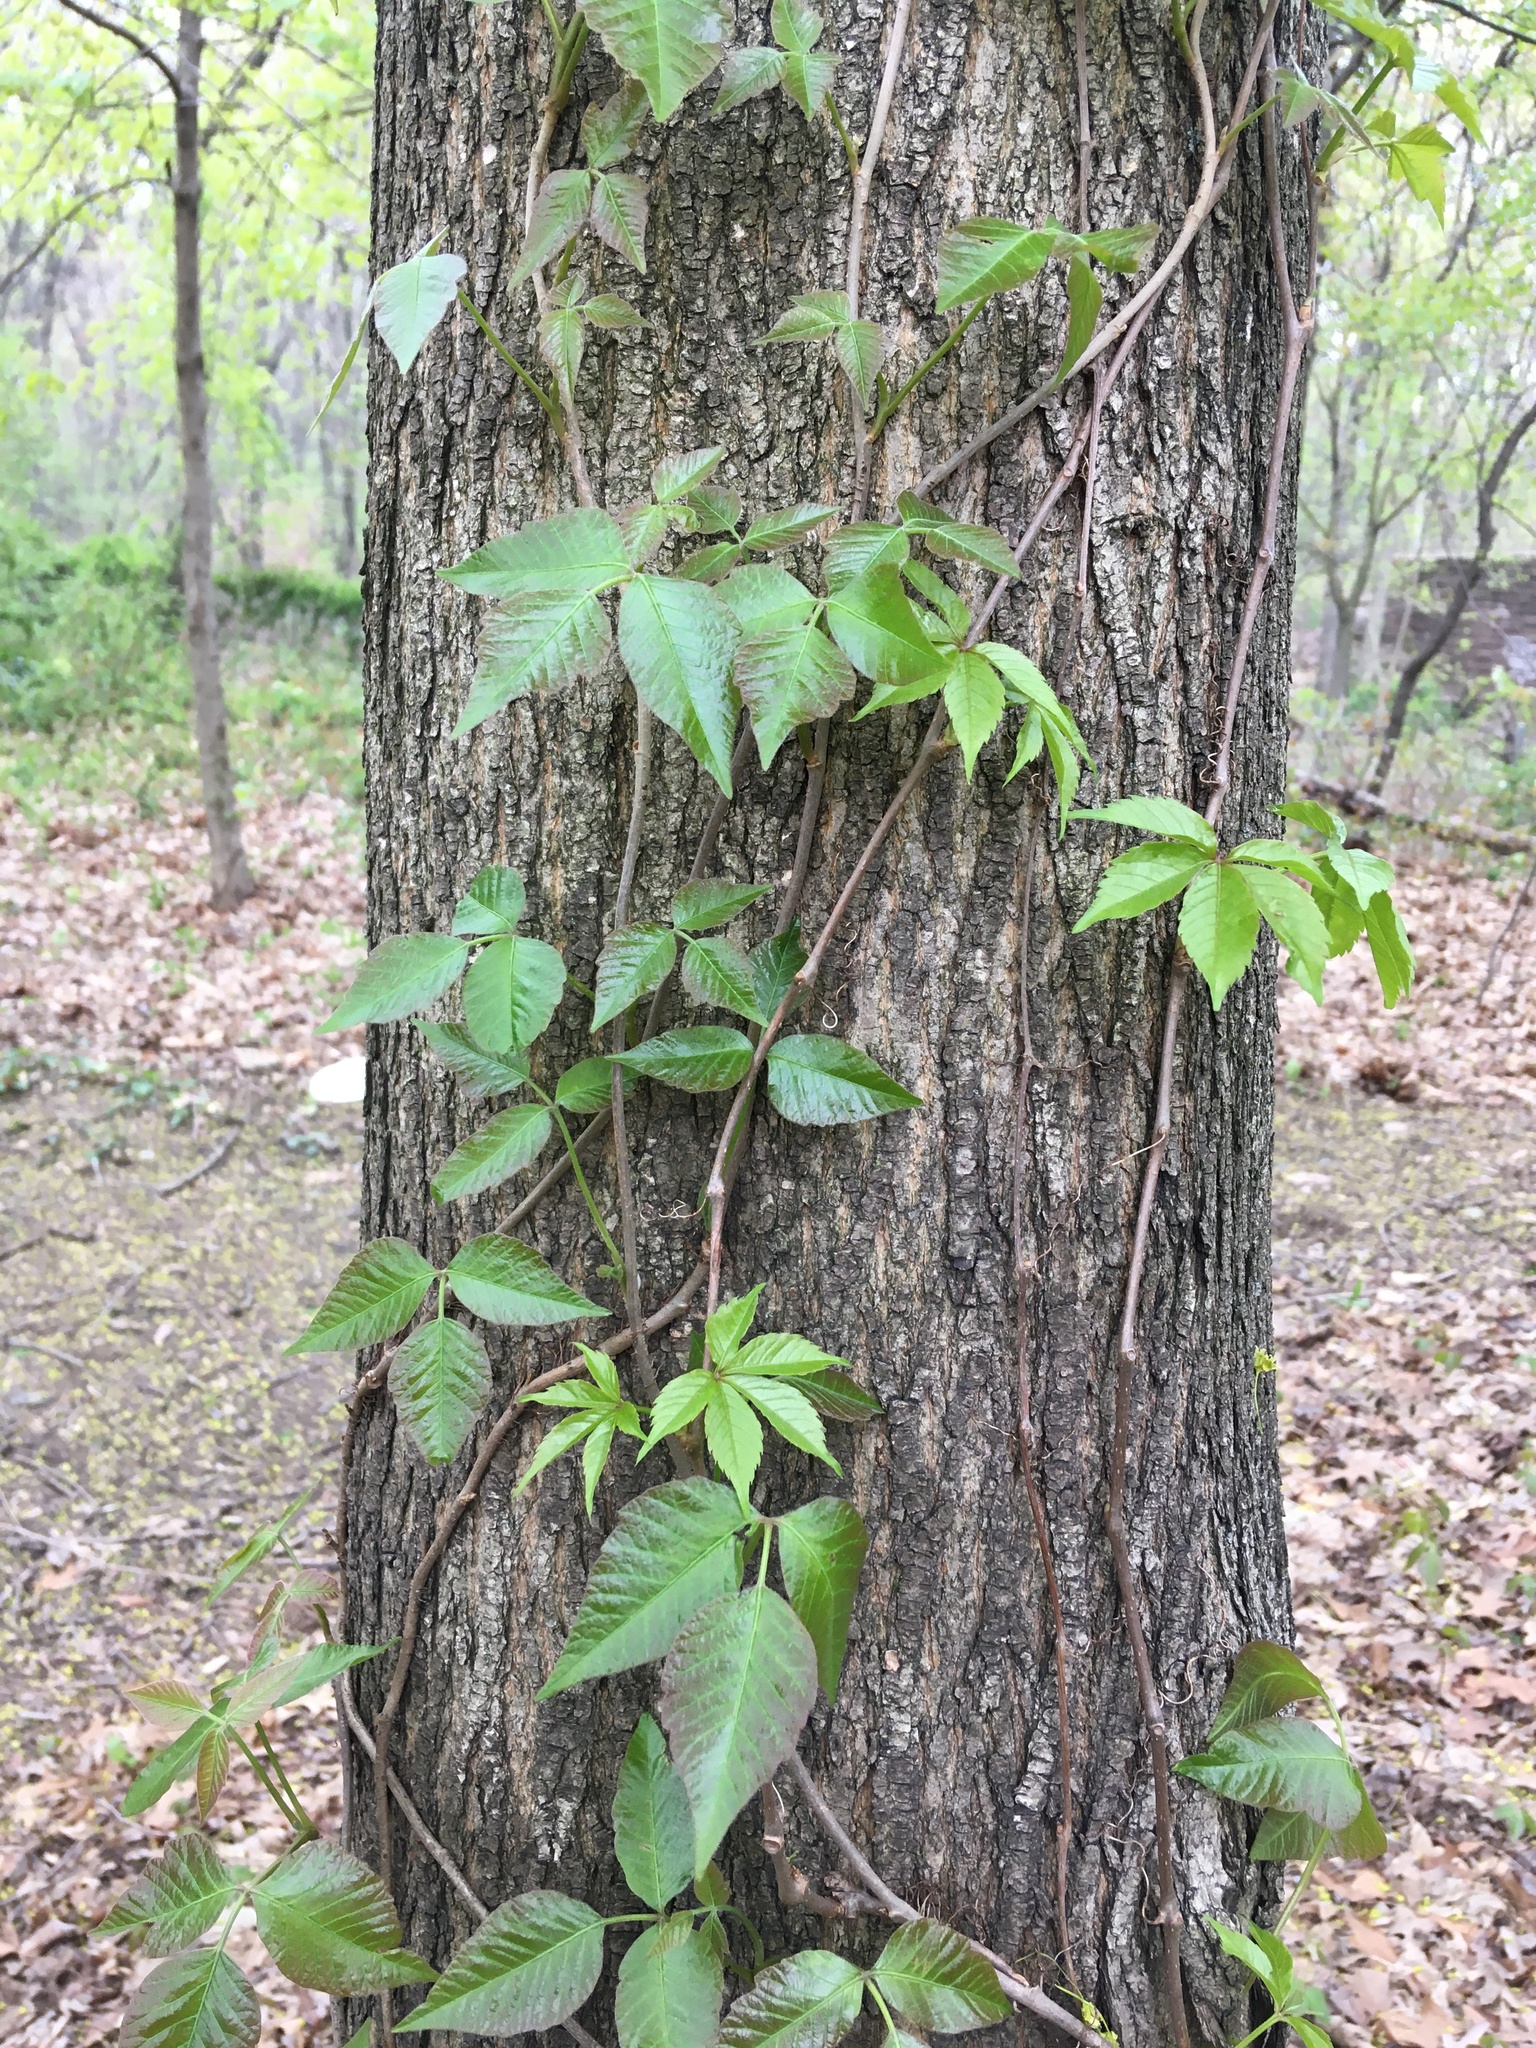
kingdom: Plantae
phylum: Tracheophyta
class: Magnoliopsida
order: Sapindales
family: Anacardiaceae
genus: Toxicodendron
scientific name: Toxicodendron radicans
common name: Poison ivy
